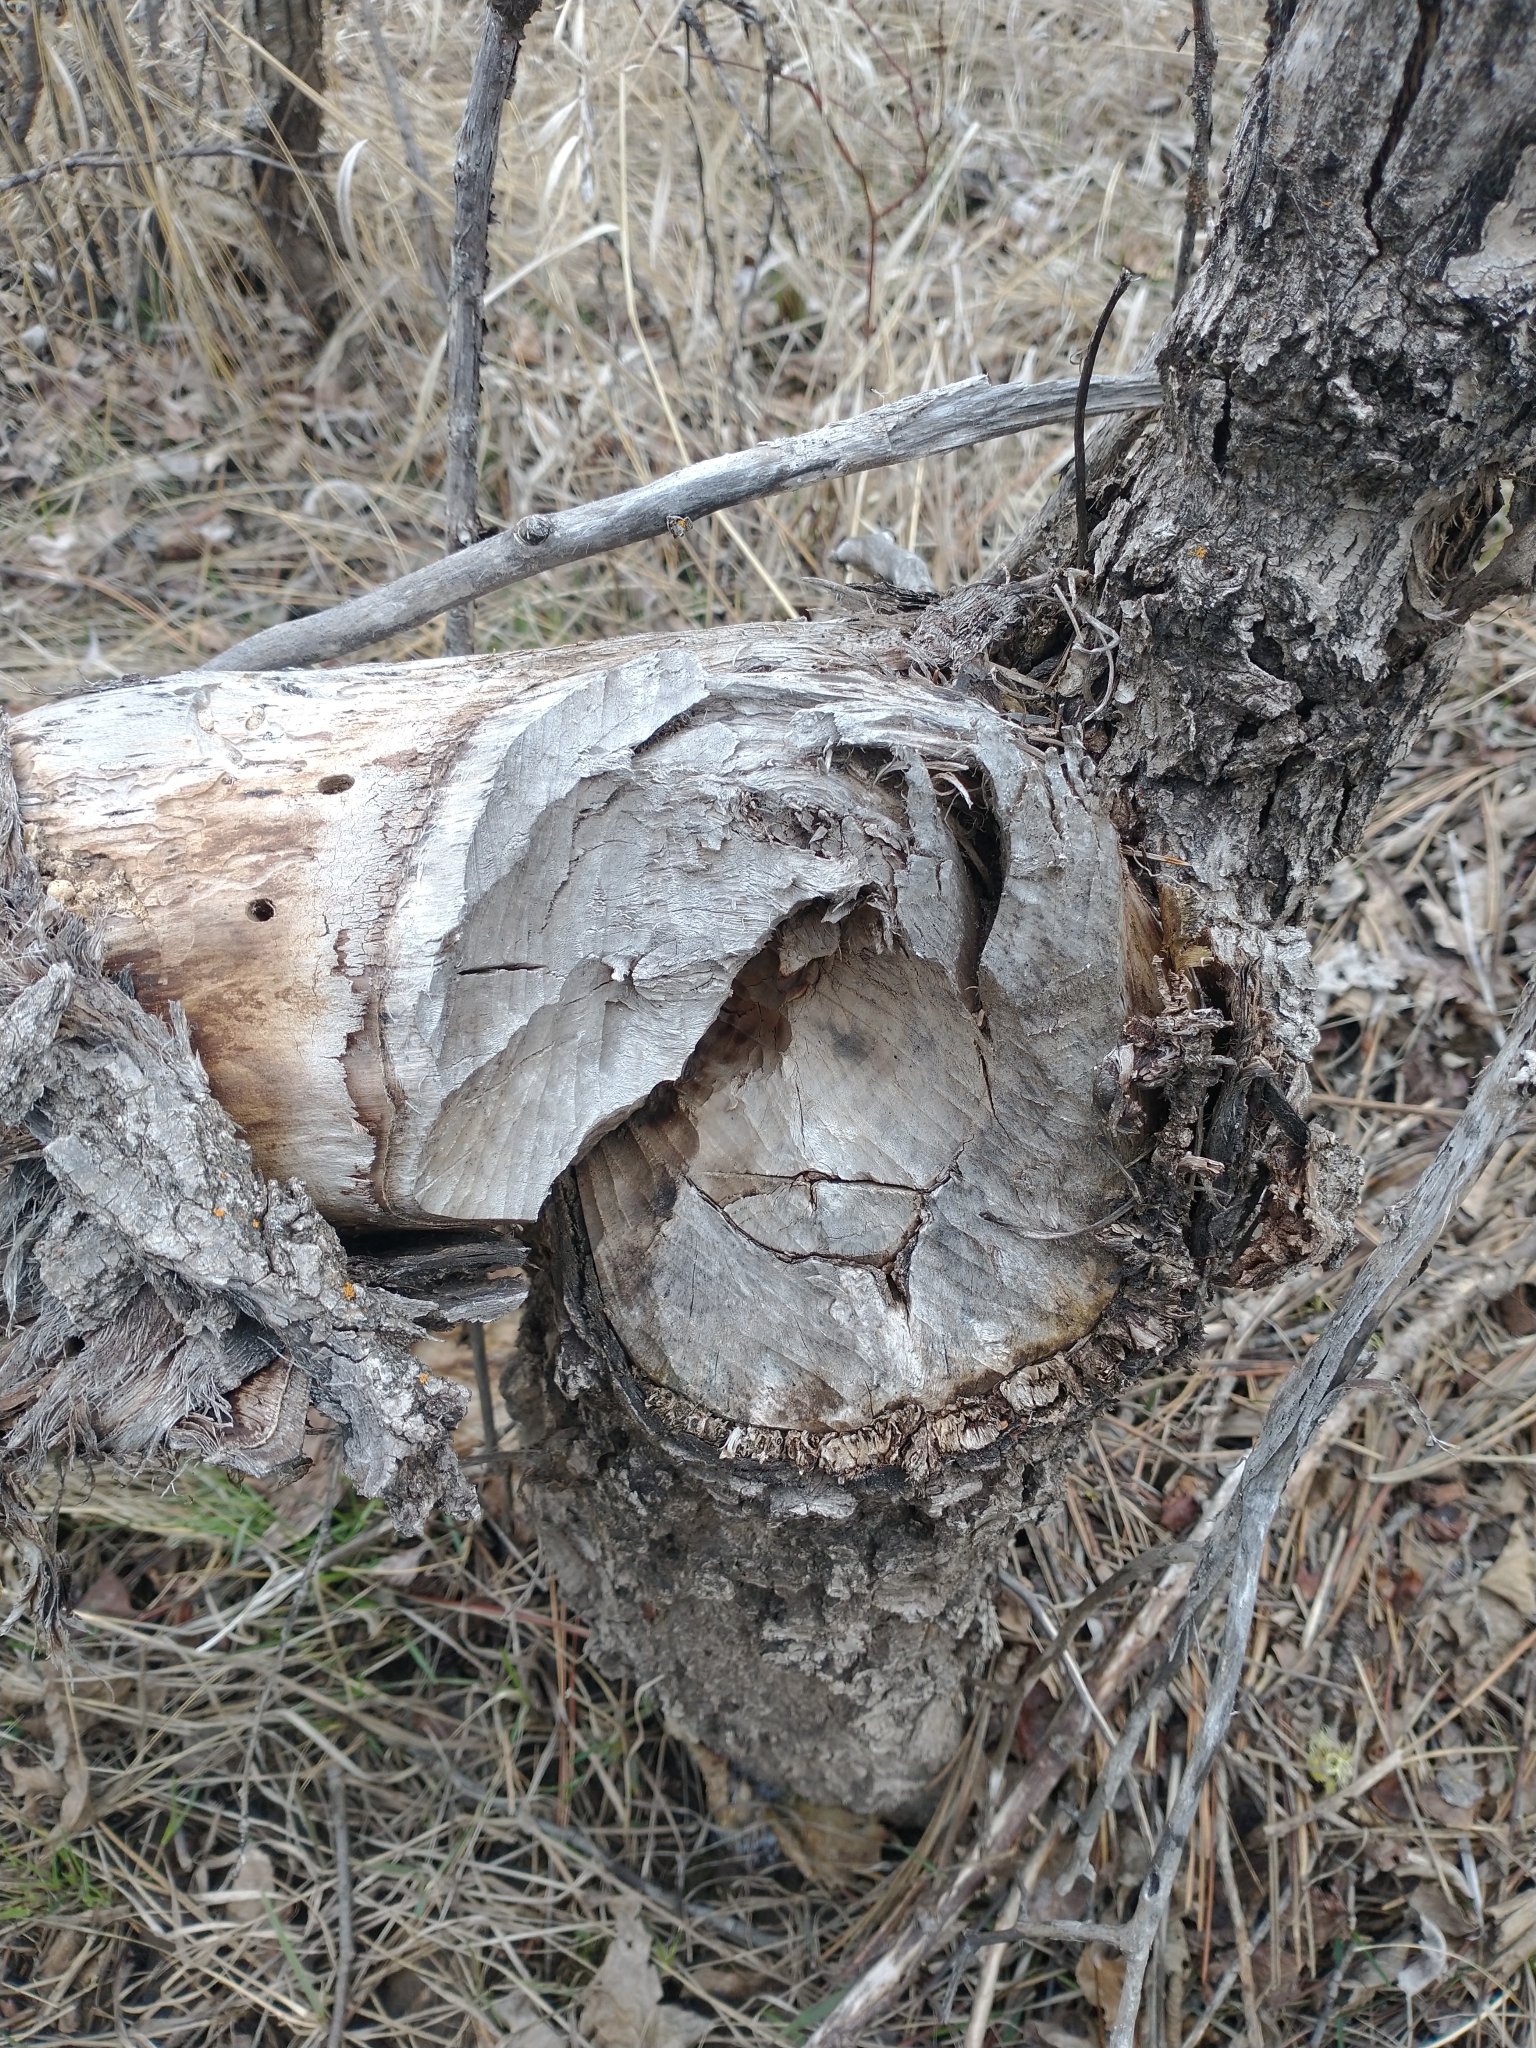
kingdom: Animalia
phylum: Chordata
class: Mammalia
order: Rodentia
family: Castoridae
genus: Castor
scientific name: Castor canadensis
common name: American beaver
